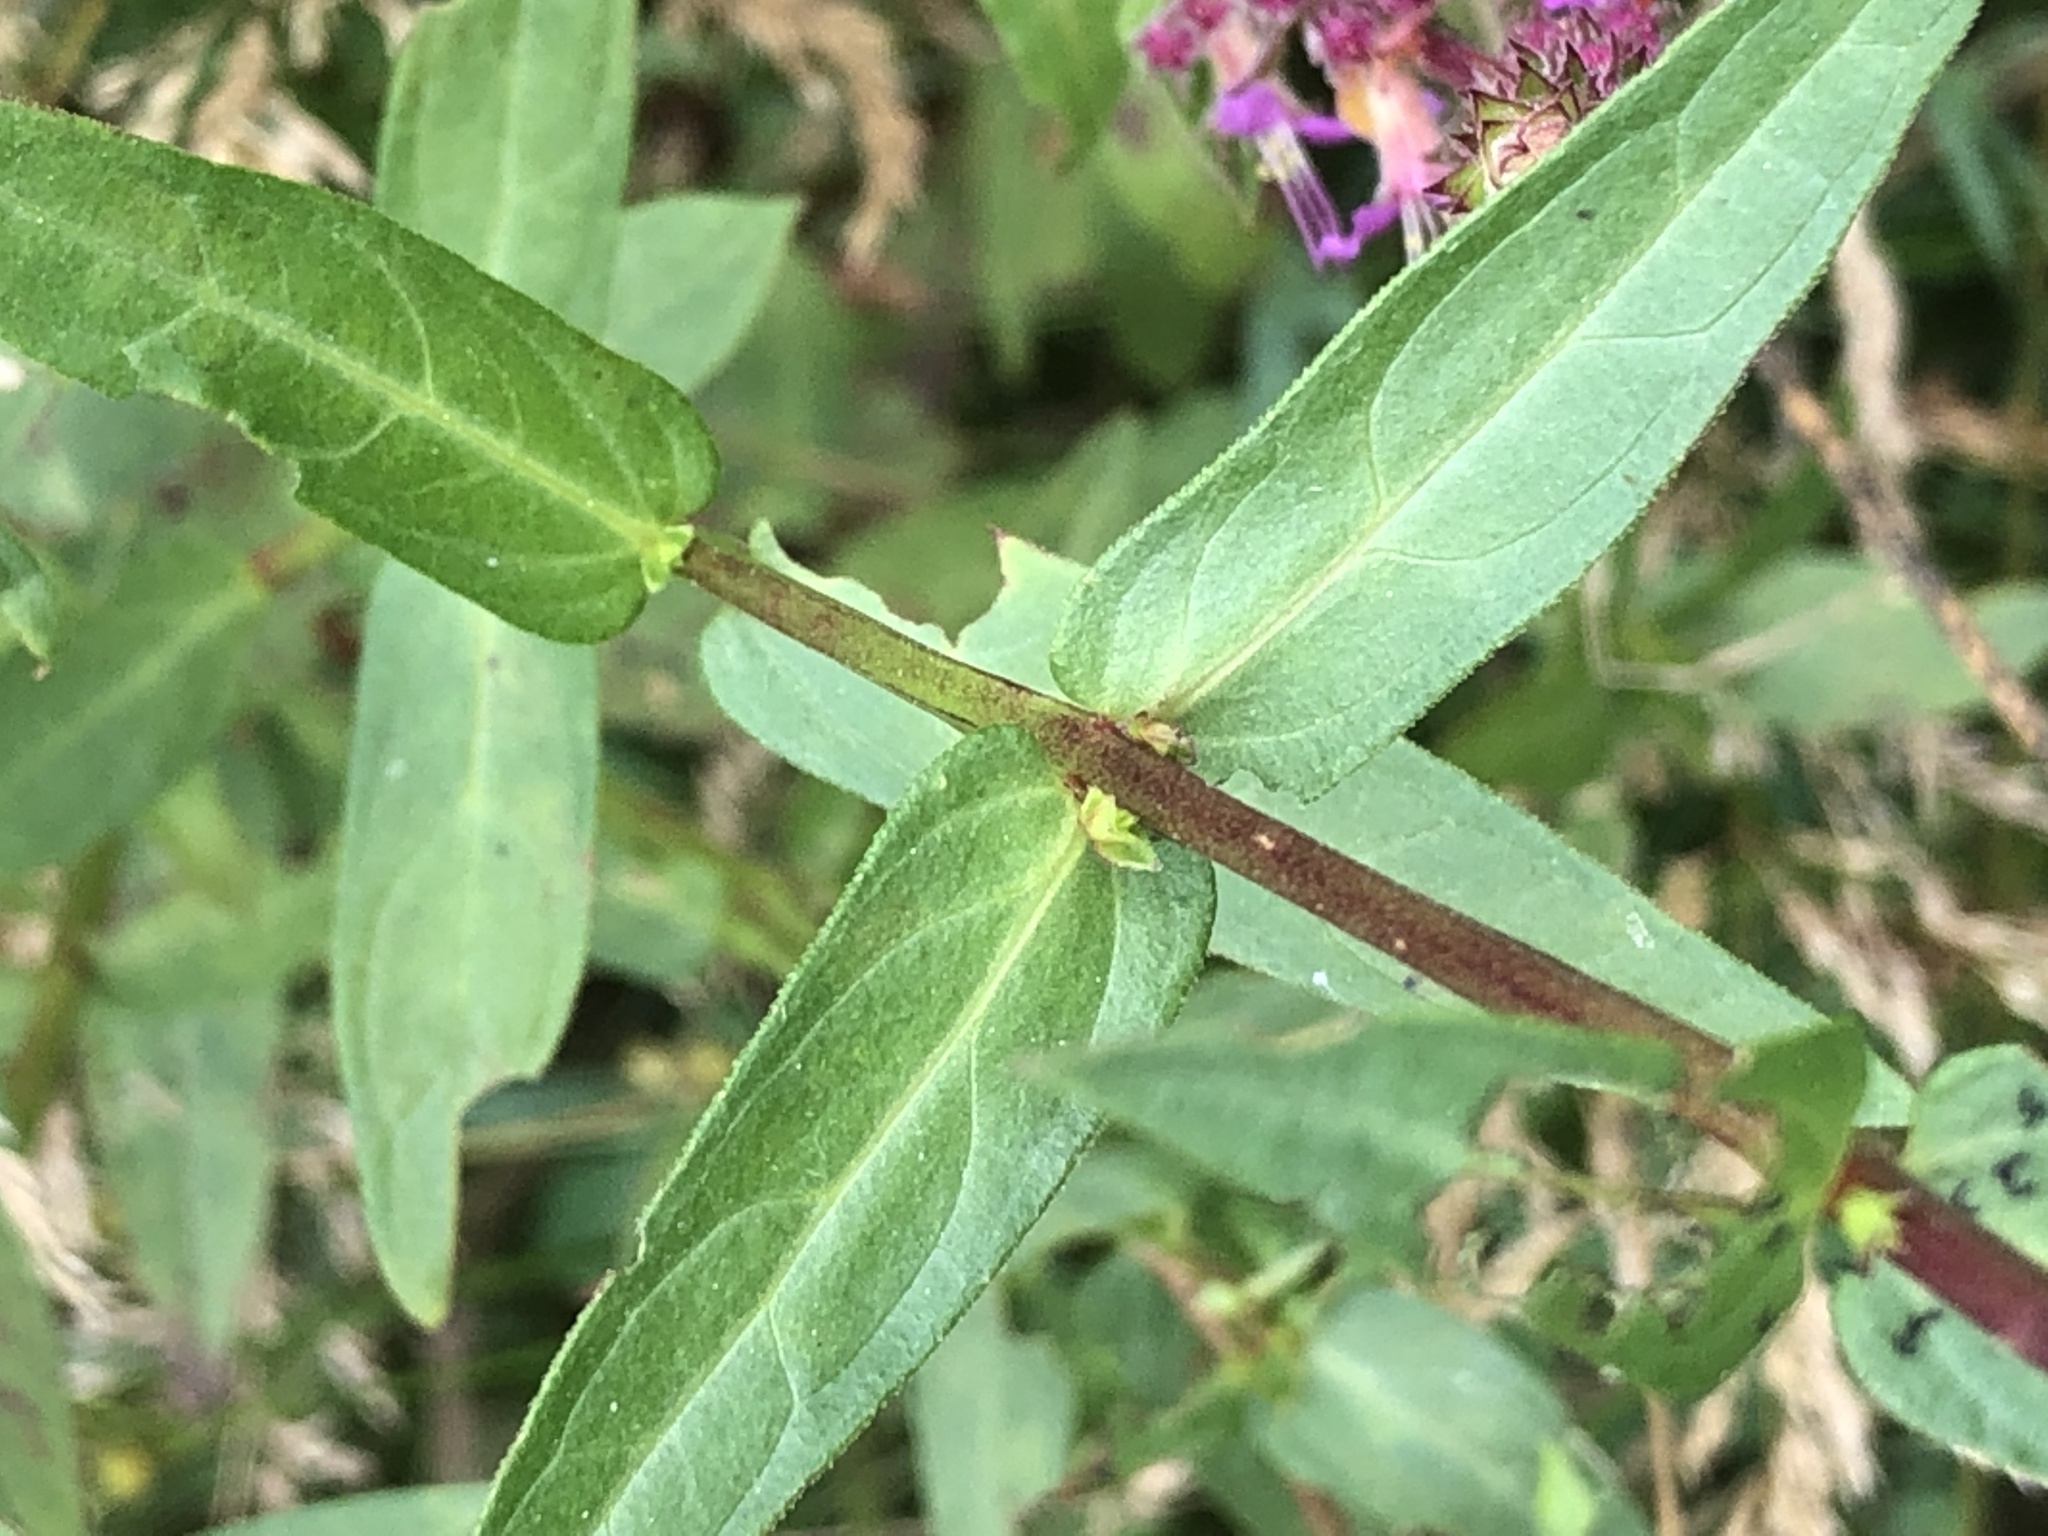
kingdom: Plantae
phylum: Tracheophyta
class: Magnoliopsida
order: Myrtales
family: Lythraceae
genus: Lythrum
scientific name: Lythrum salicaria
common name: Purple loosestrife
